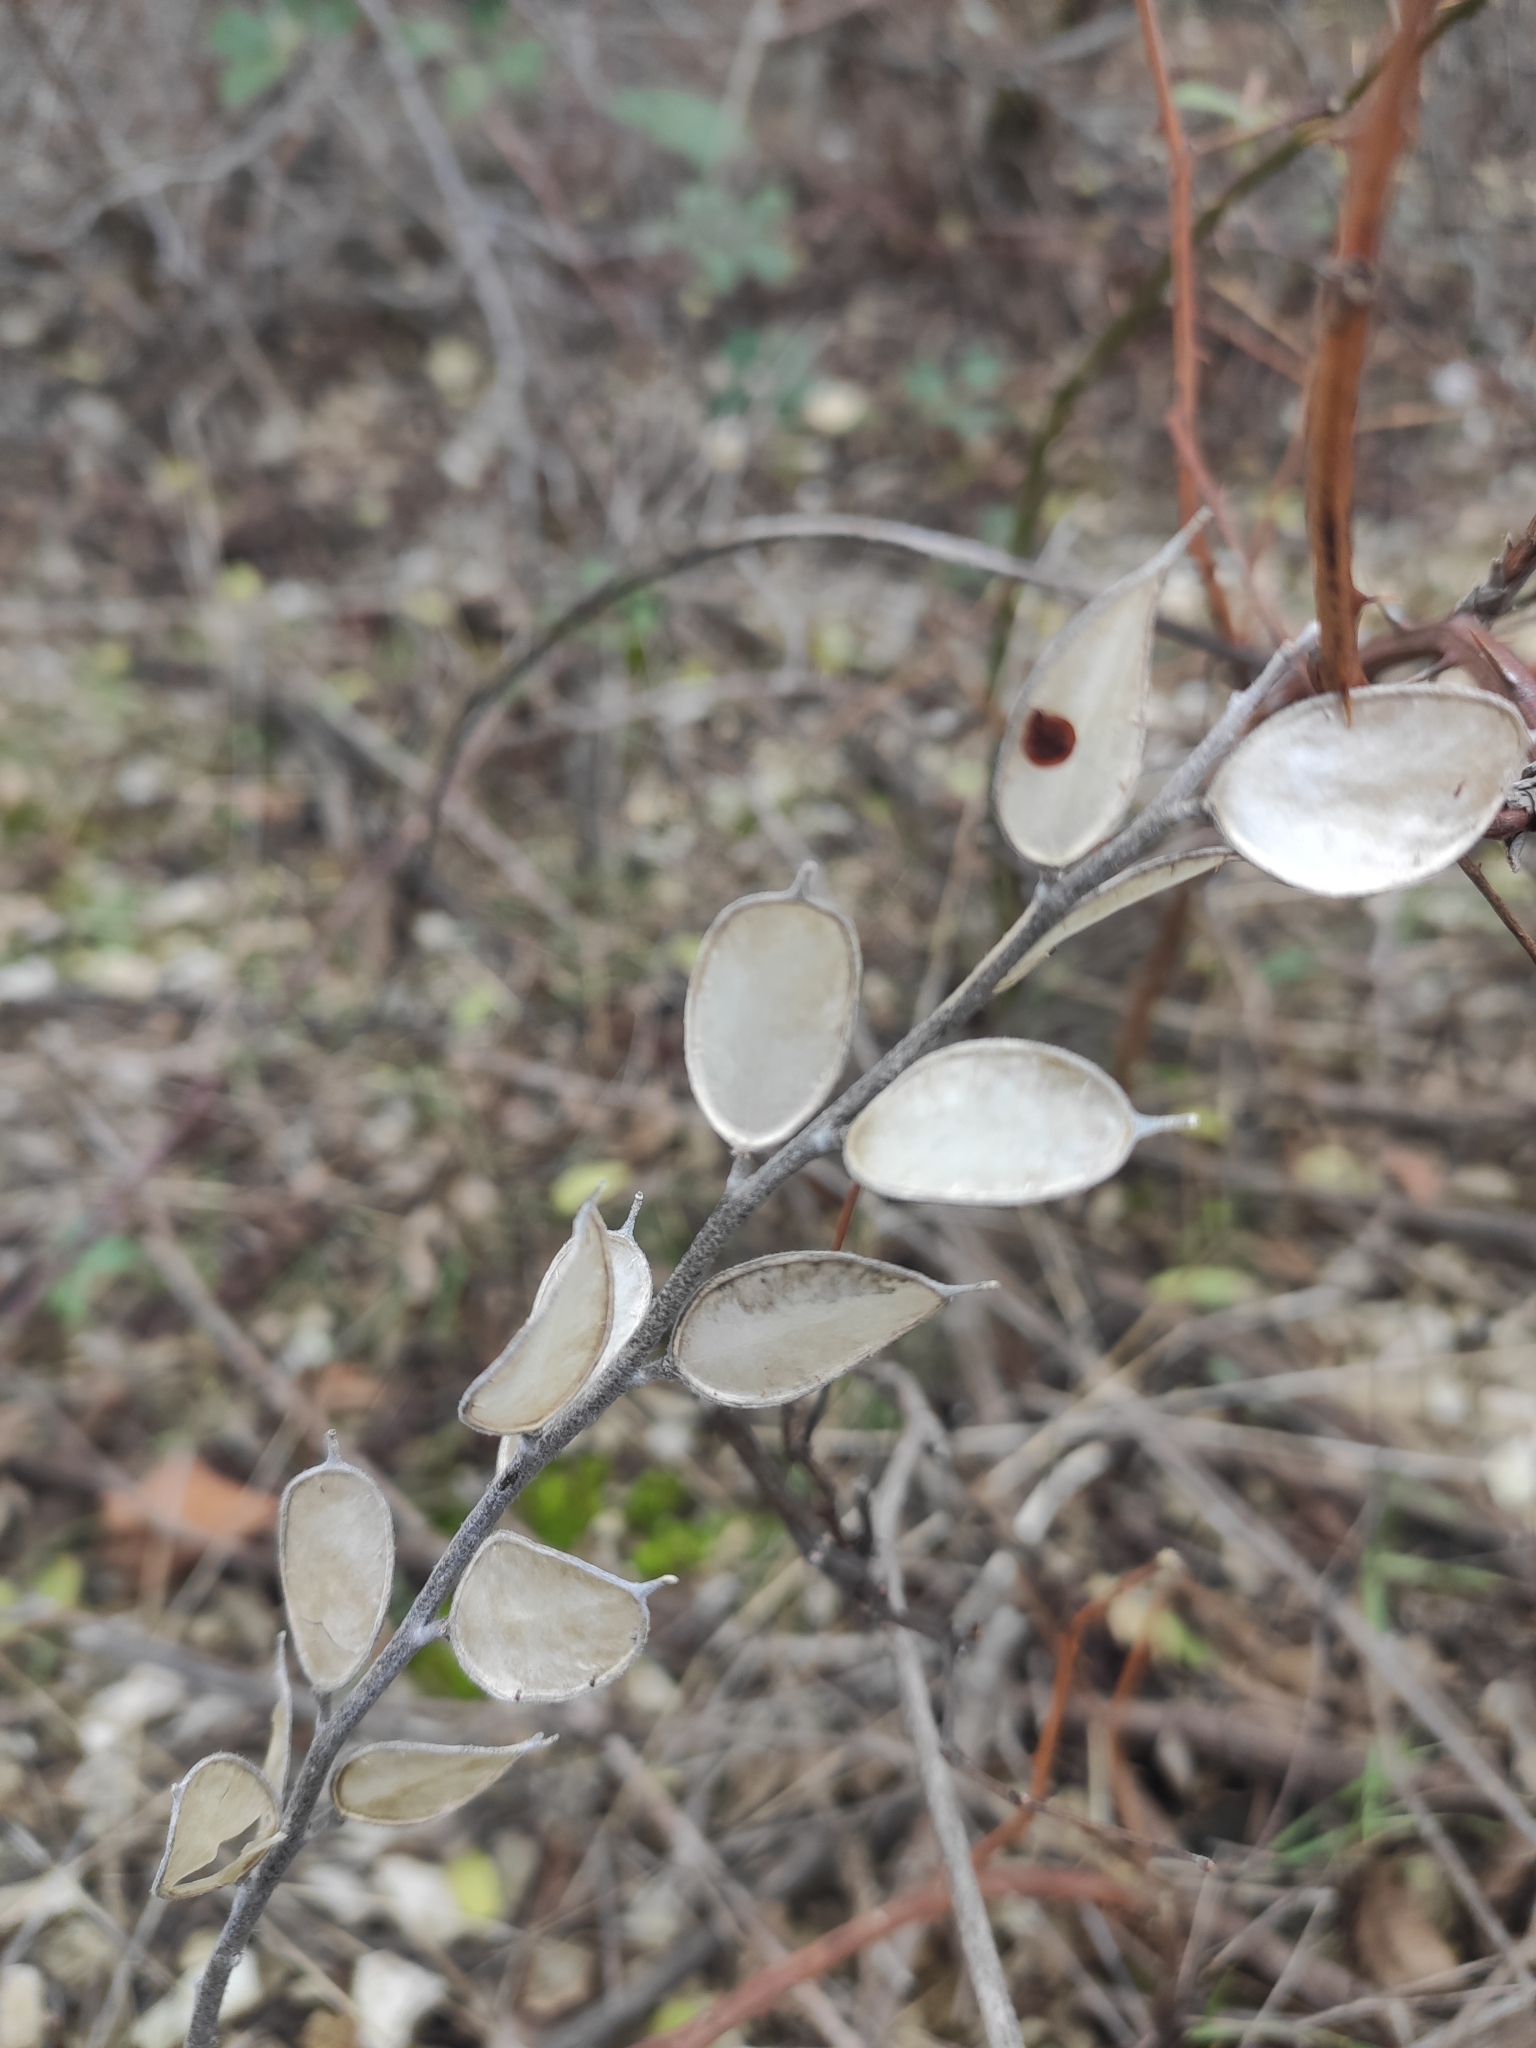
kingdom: Plantae
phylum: Tracheophyta
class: Magnoliopsida
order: Brassicales
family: Brassicaceae
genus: Fibigia
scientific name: Fibigia clypeata
